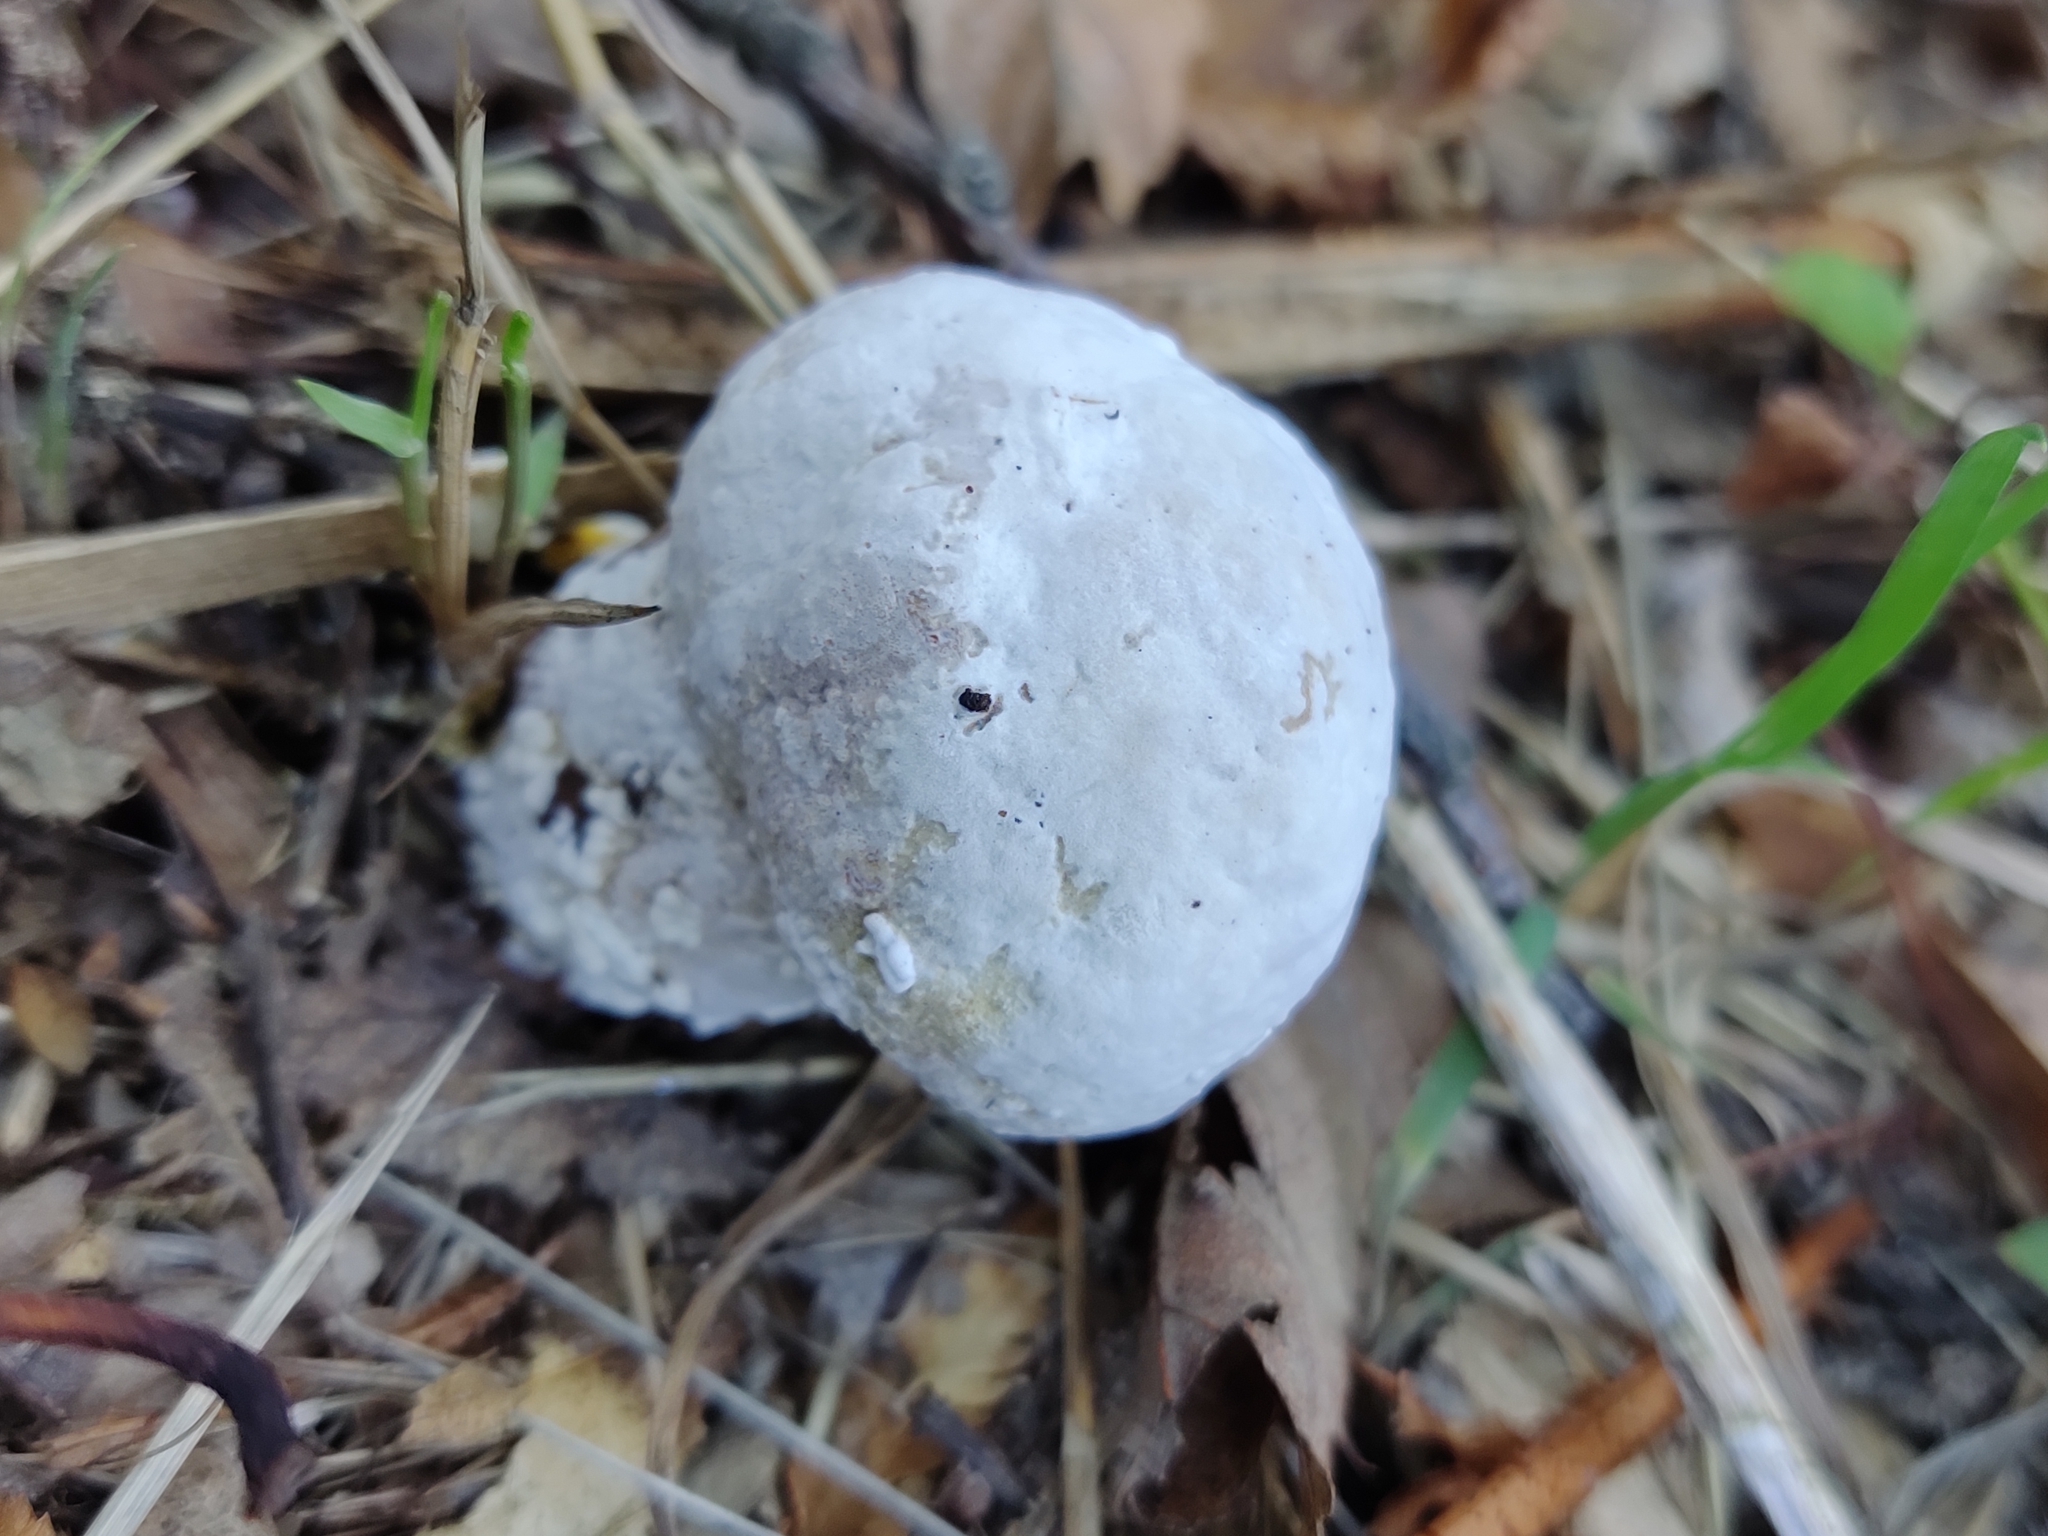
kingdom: Fungi
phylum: Ascomycota
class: Sordariomycetes
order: Hypocreales
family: Hypocreaceae
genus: Hypomyces
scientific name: Hypomyces chrysospermus
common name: Bolete mould
